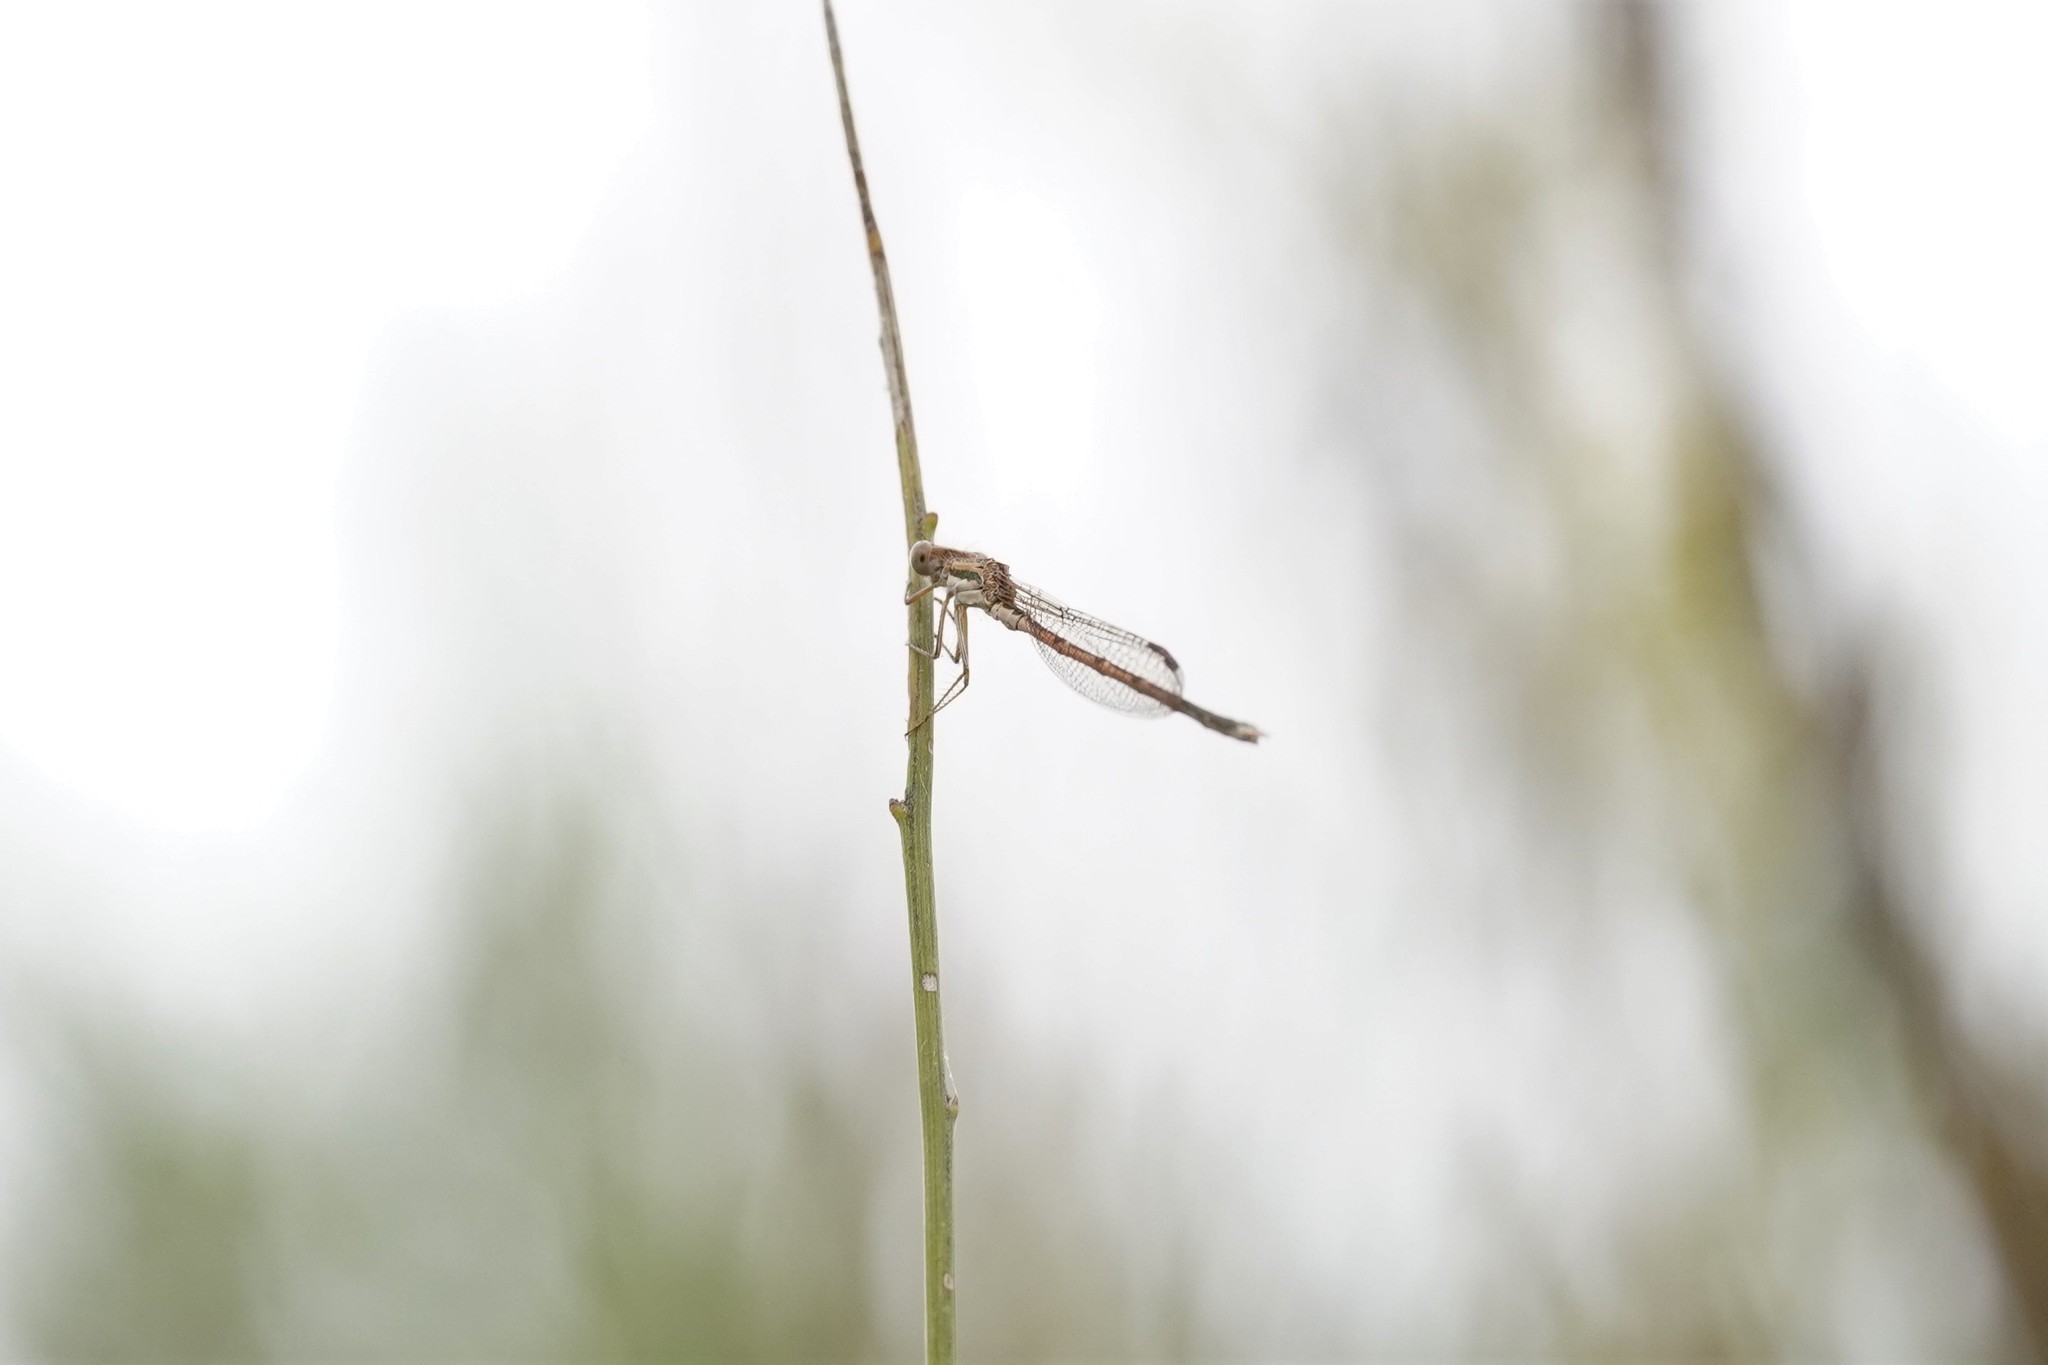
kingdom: Animalia
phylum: Arthropoda
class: Insecta
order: Odonata
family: Lestidae
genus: Sympecma
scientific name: Sympecma fusca
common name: Common winter damsel
